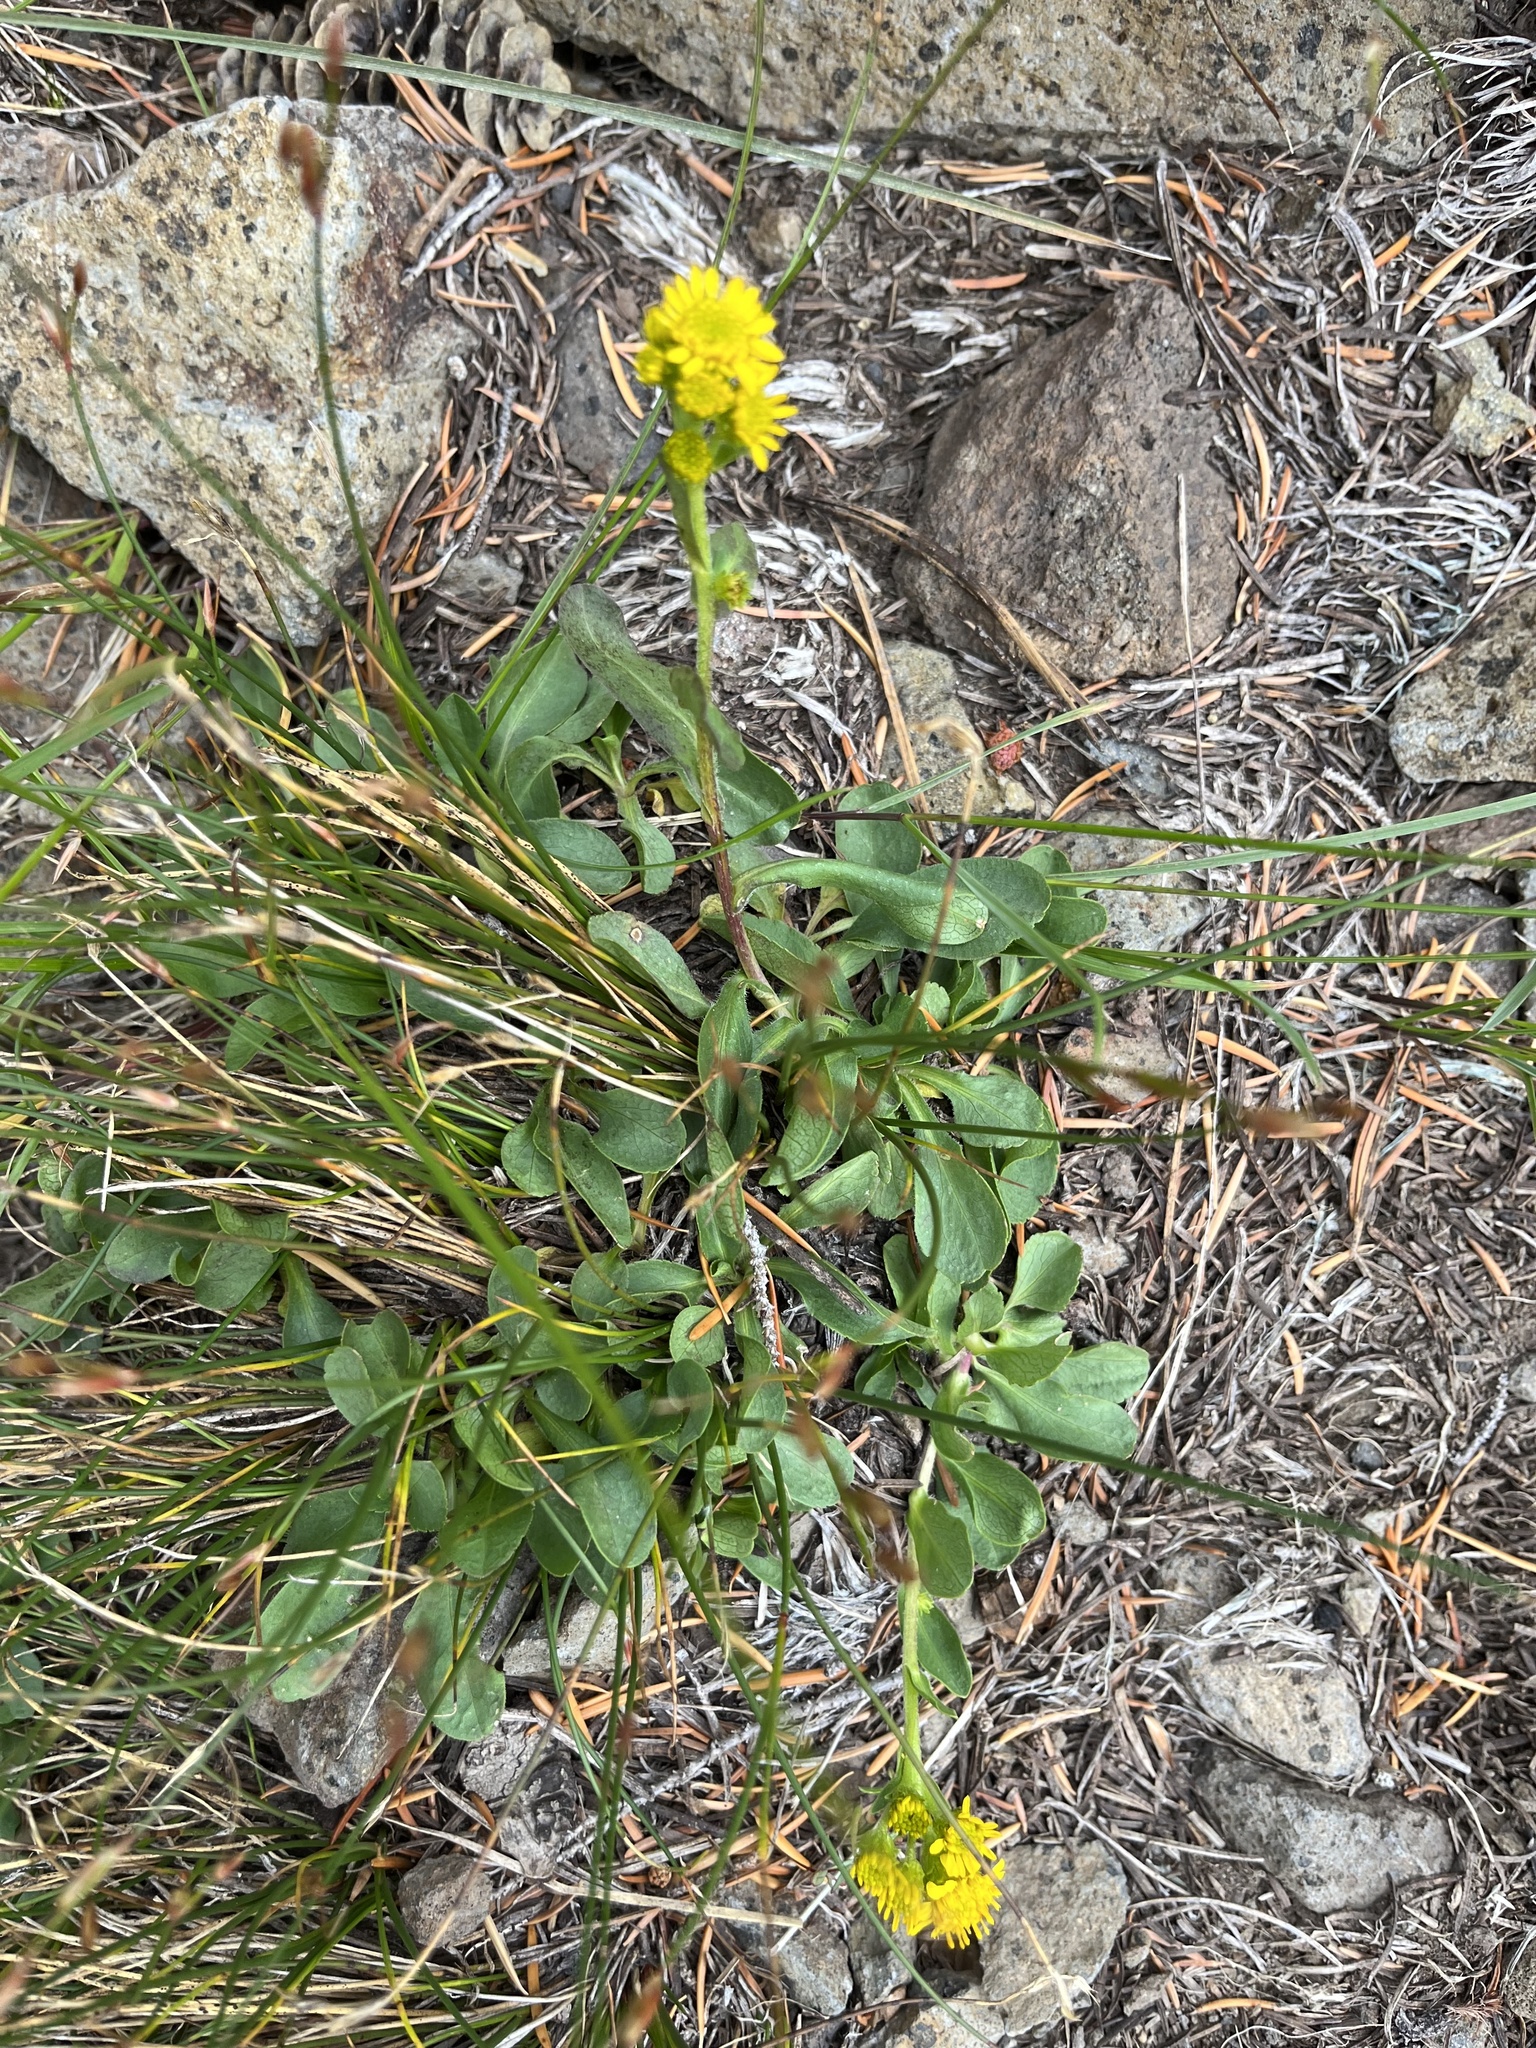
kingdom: Plantae
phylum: Tracheophyta
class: Magnoliopsida
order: Asterales
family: Asteraceae
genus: Solidago
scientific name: Solidago multiradiata
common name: Northern goldenrod
